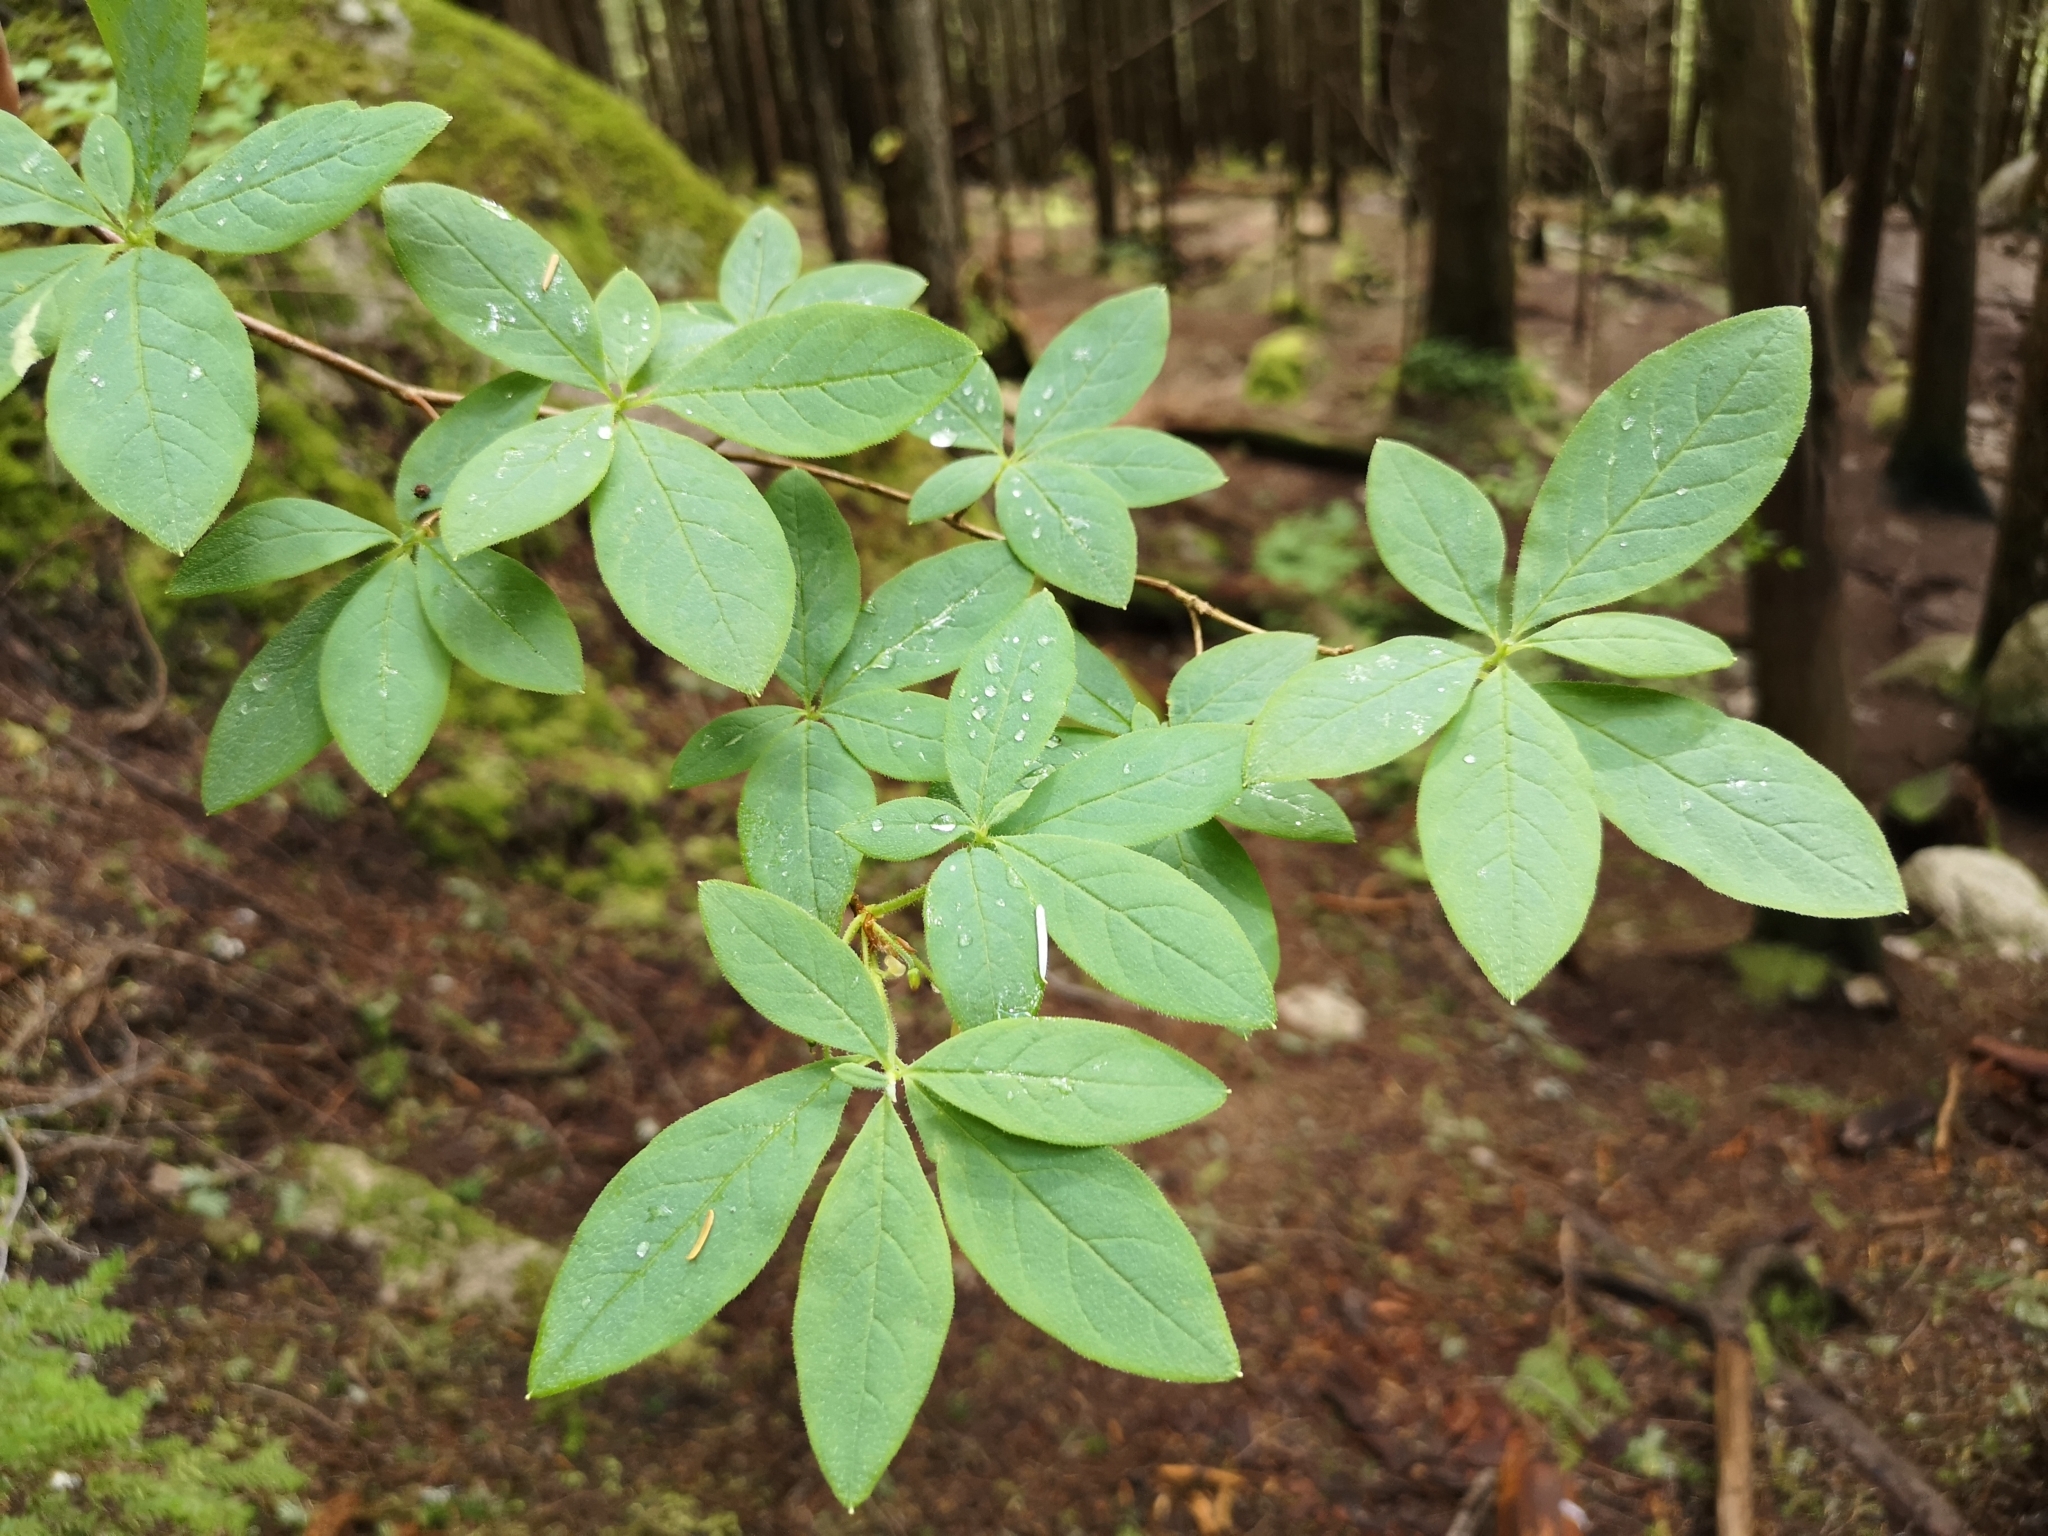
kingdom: Plantae
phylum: Tracheophyta
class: Magnoliopsida
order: Ericales
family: Ericaceae
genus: Rhododendron
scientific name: Rhododendron menziesii
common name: Pacific menziesia
